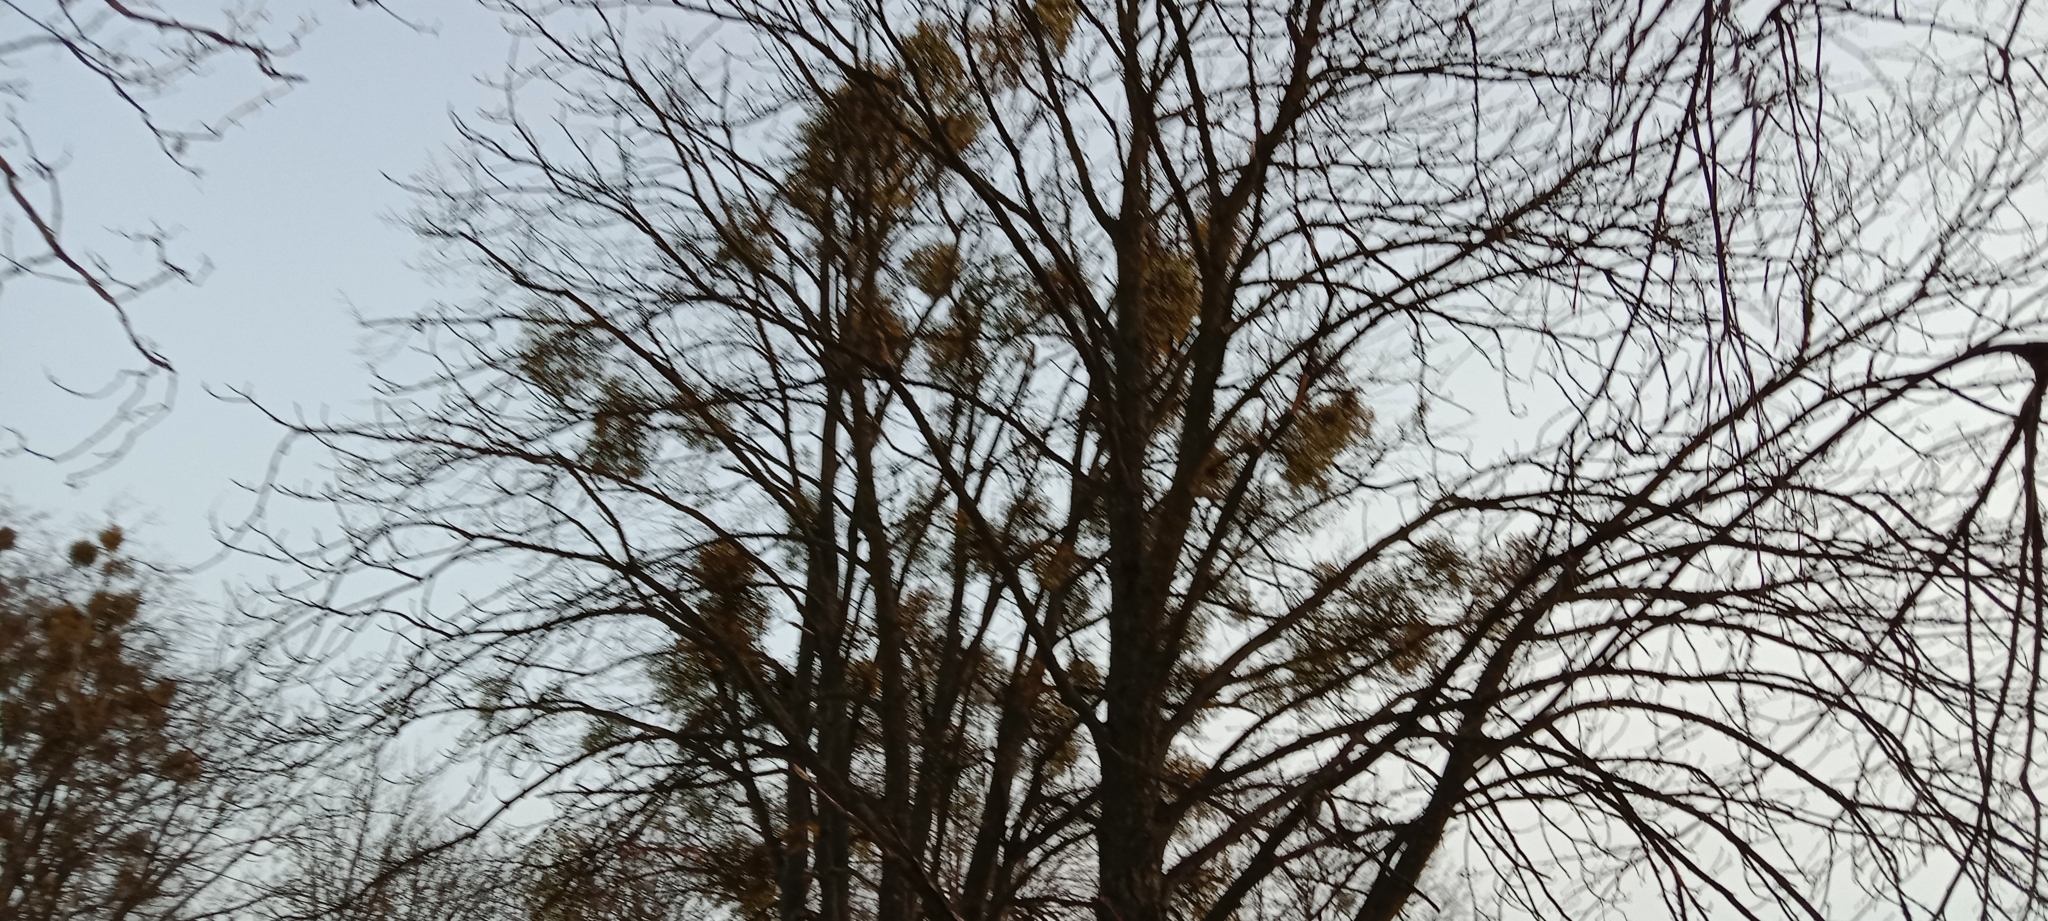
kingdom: Plantae
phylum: Tracheophyta
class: Magnoliopsida
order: Santalales
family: Viscaceae
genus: Viscum
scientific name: Viscum album
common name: Mistletoe
